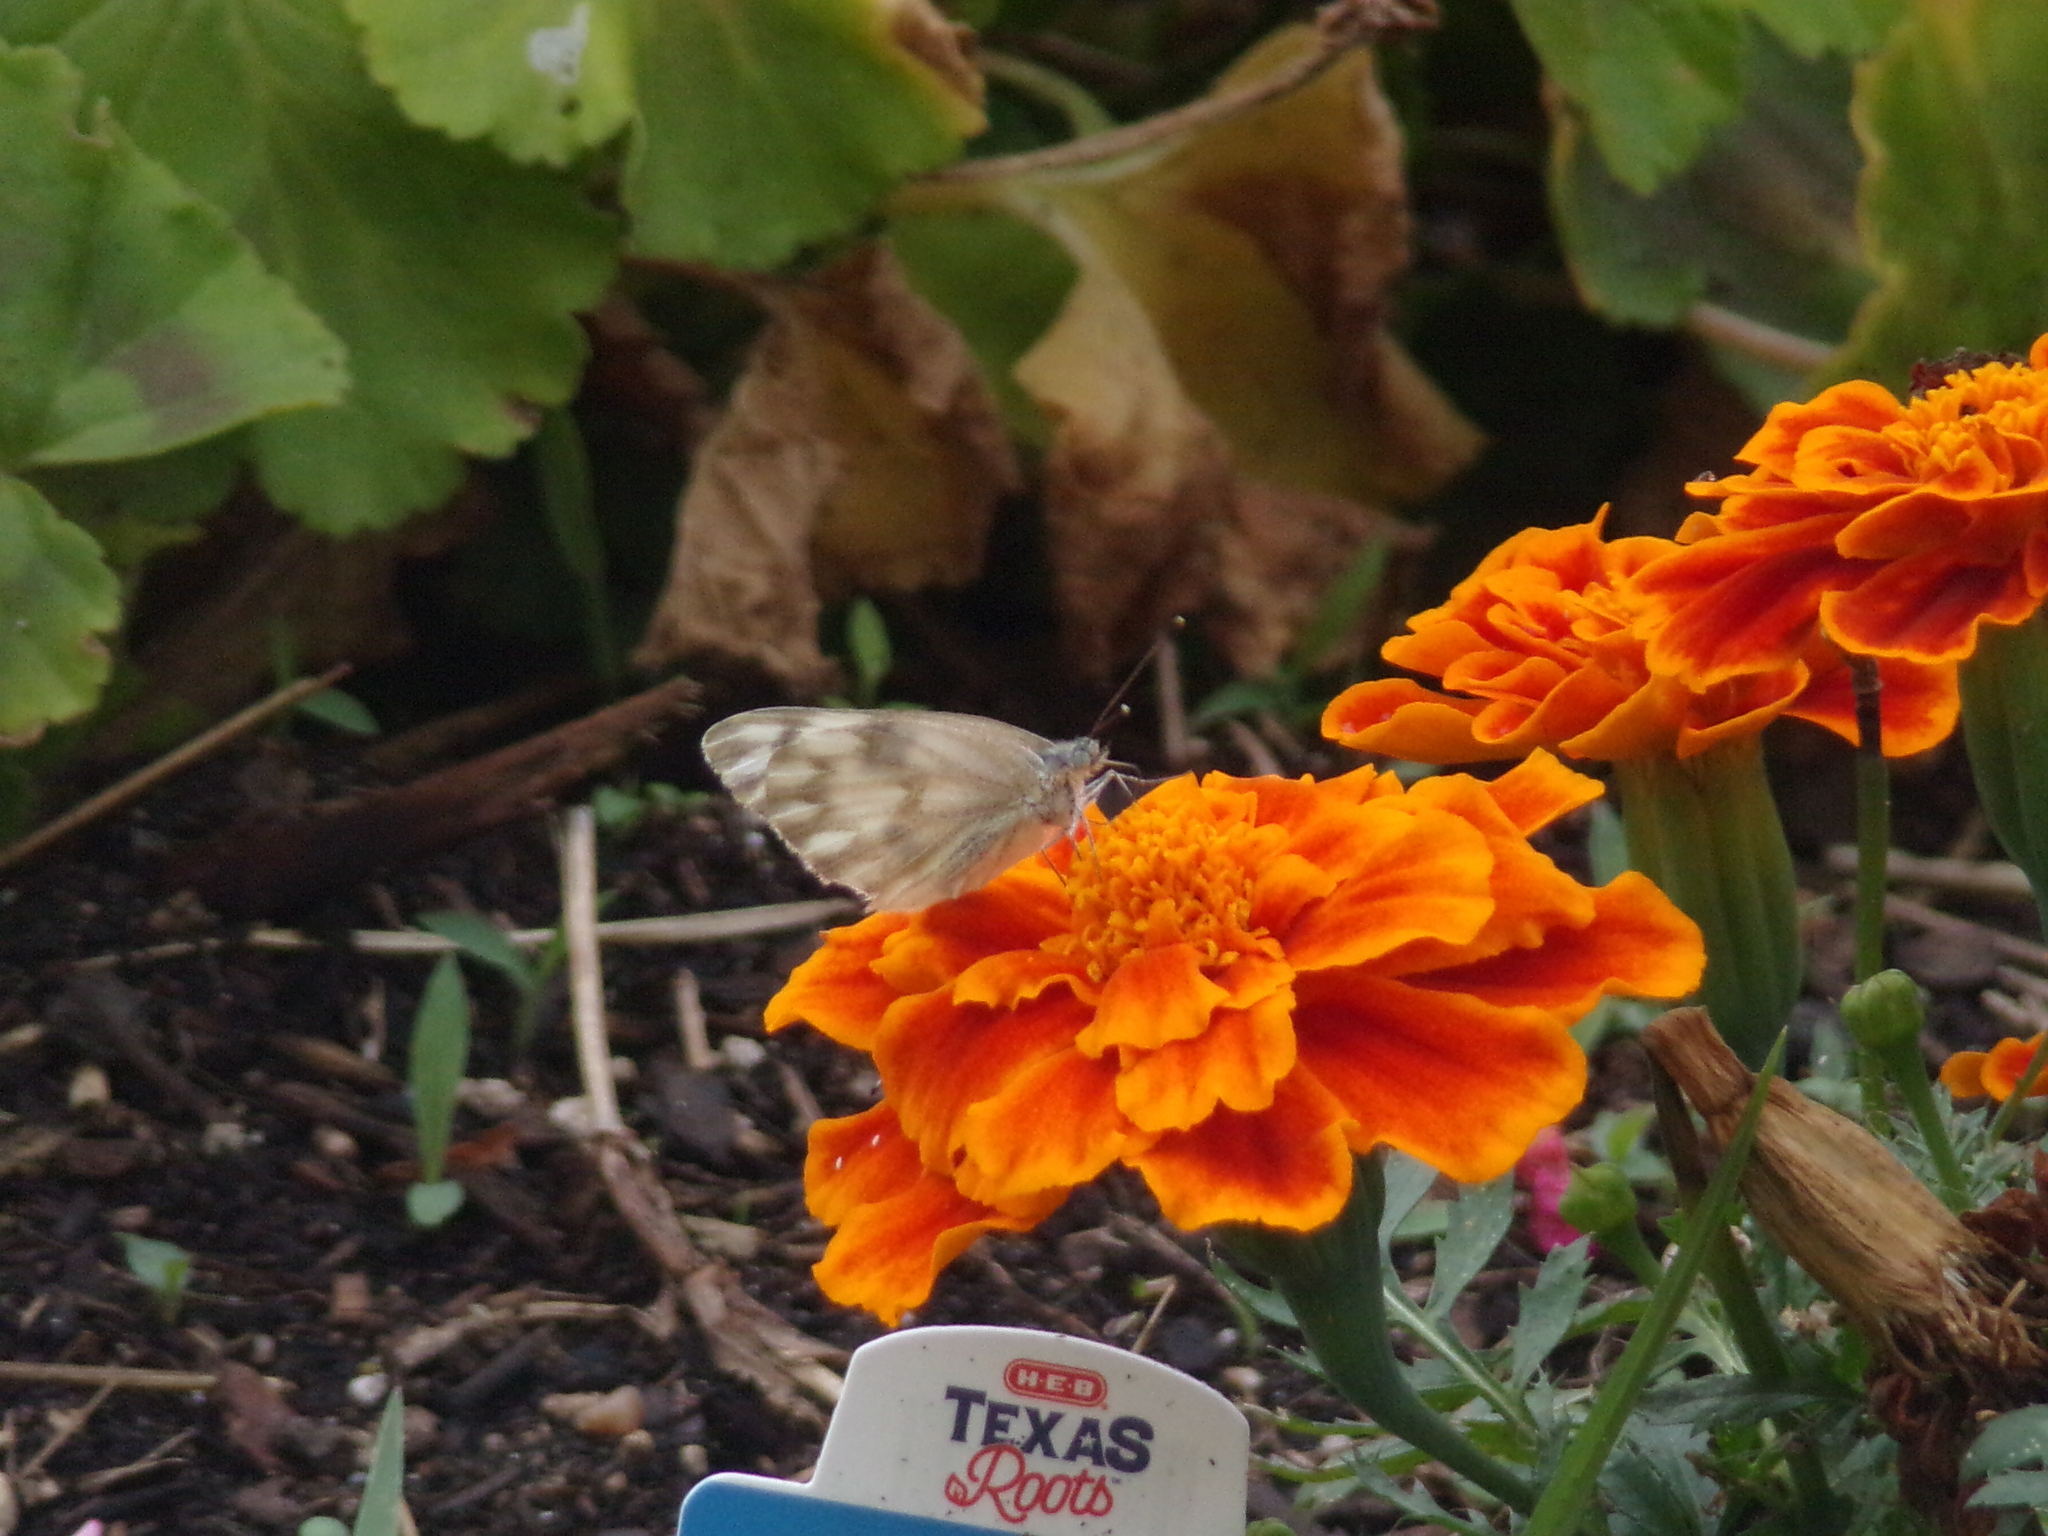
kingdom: Animalia
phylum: Arthropoda
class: Insecta
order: Lepidoptera
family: Pieridae
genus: Pontia
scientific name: Pontia protodice
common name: Checkered white
